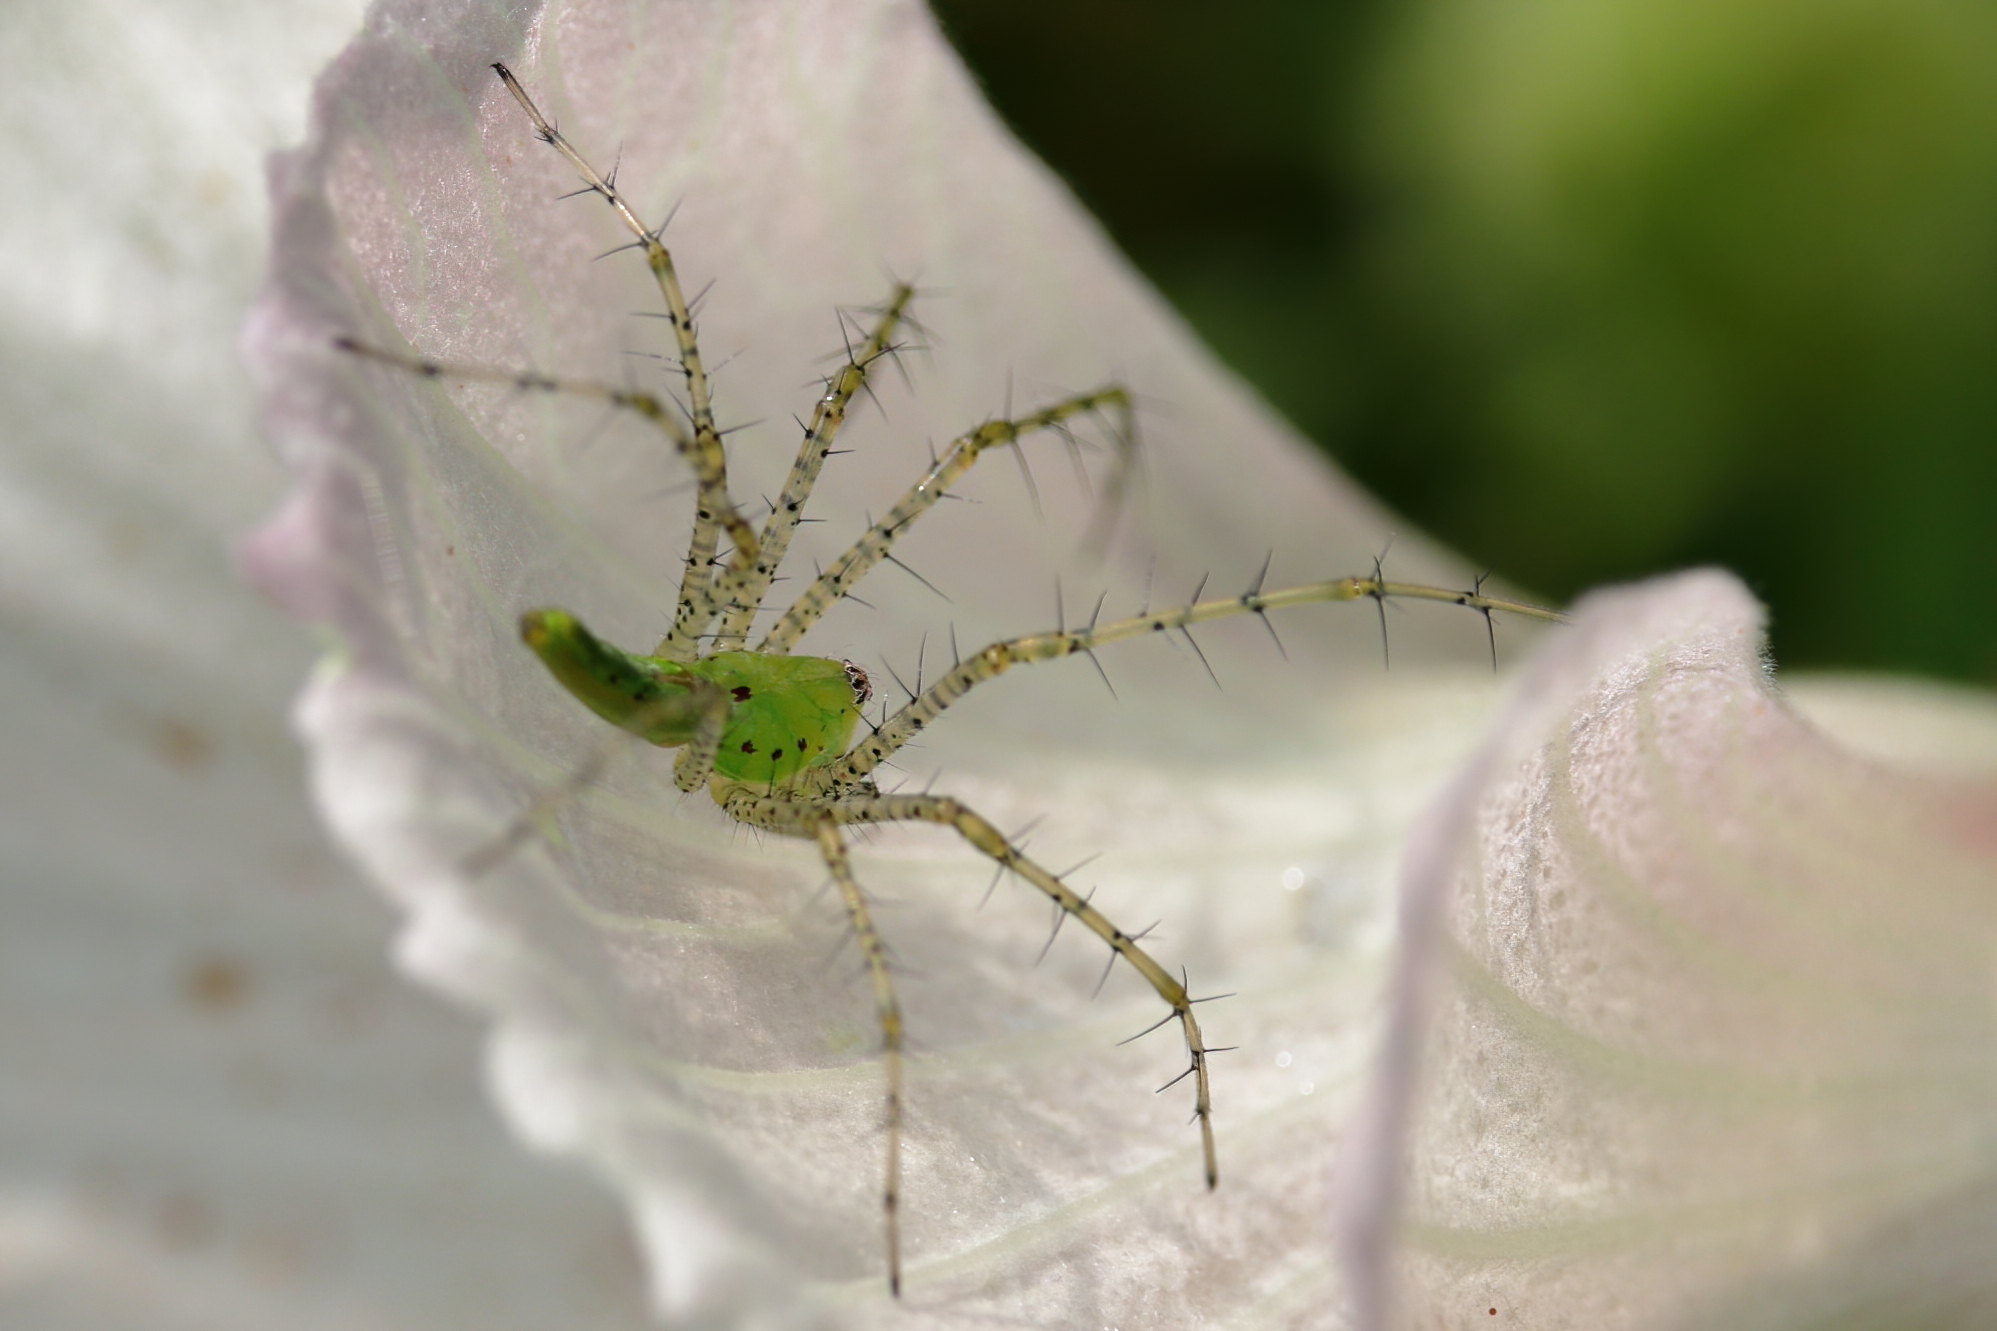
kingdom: Animalia
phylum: Arthropoda
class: Arachnida
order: Araneae
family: Oxyopidae
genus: Peucetia
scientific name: Peucetia viridans
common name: Lynx spiders
